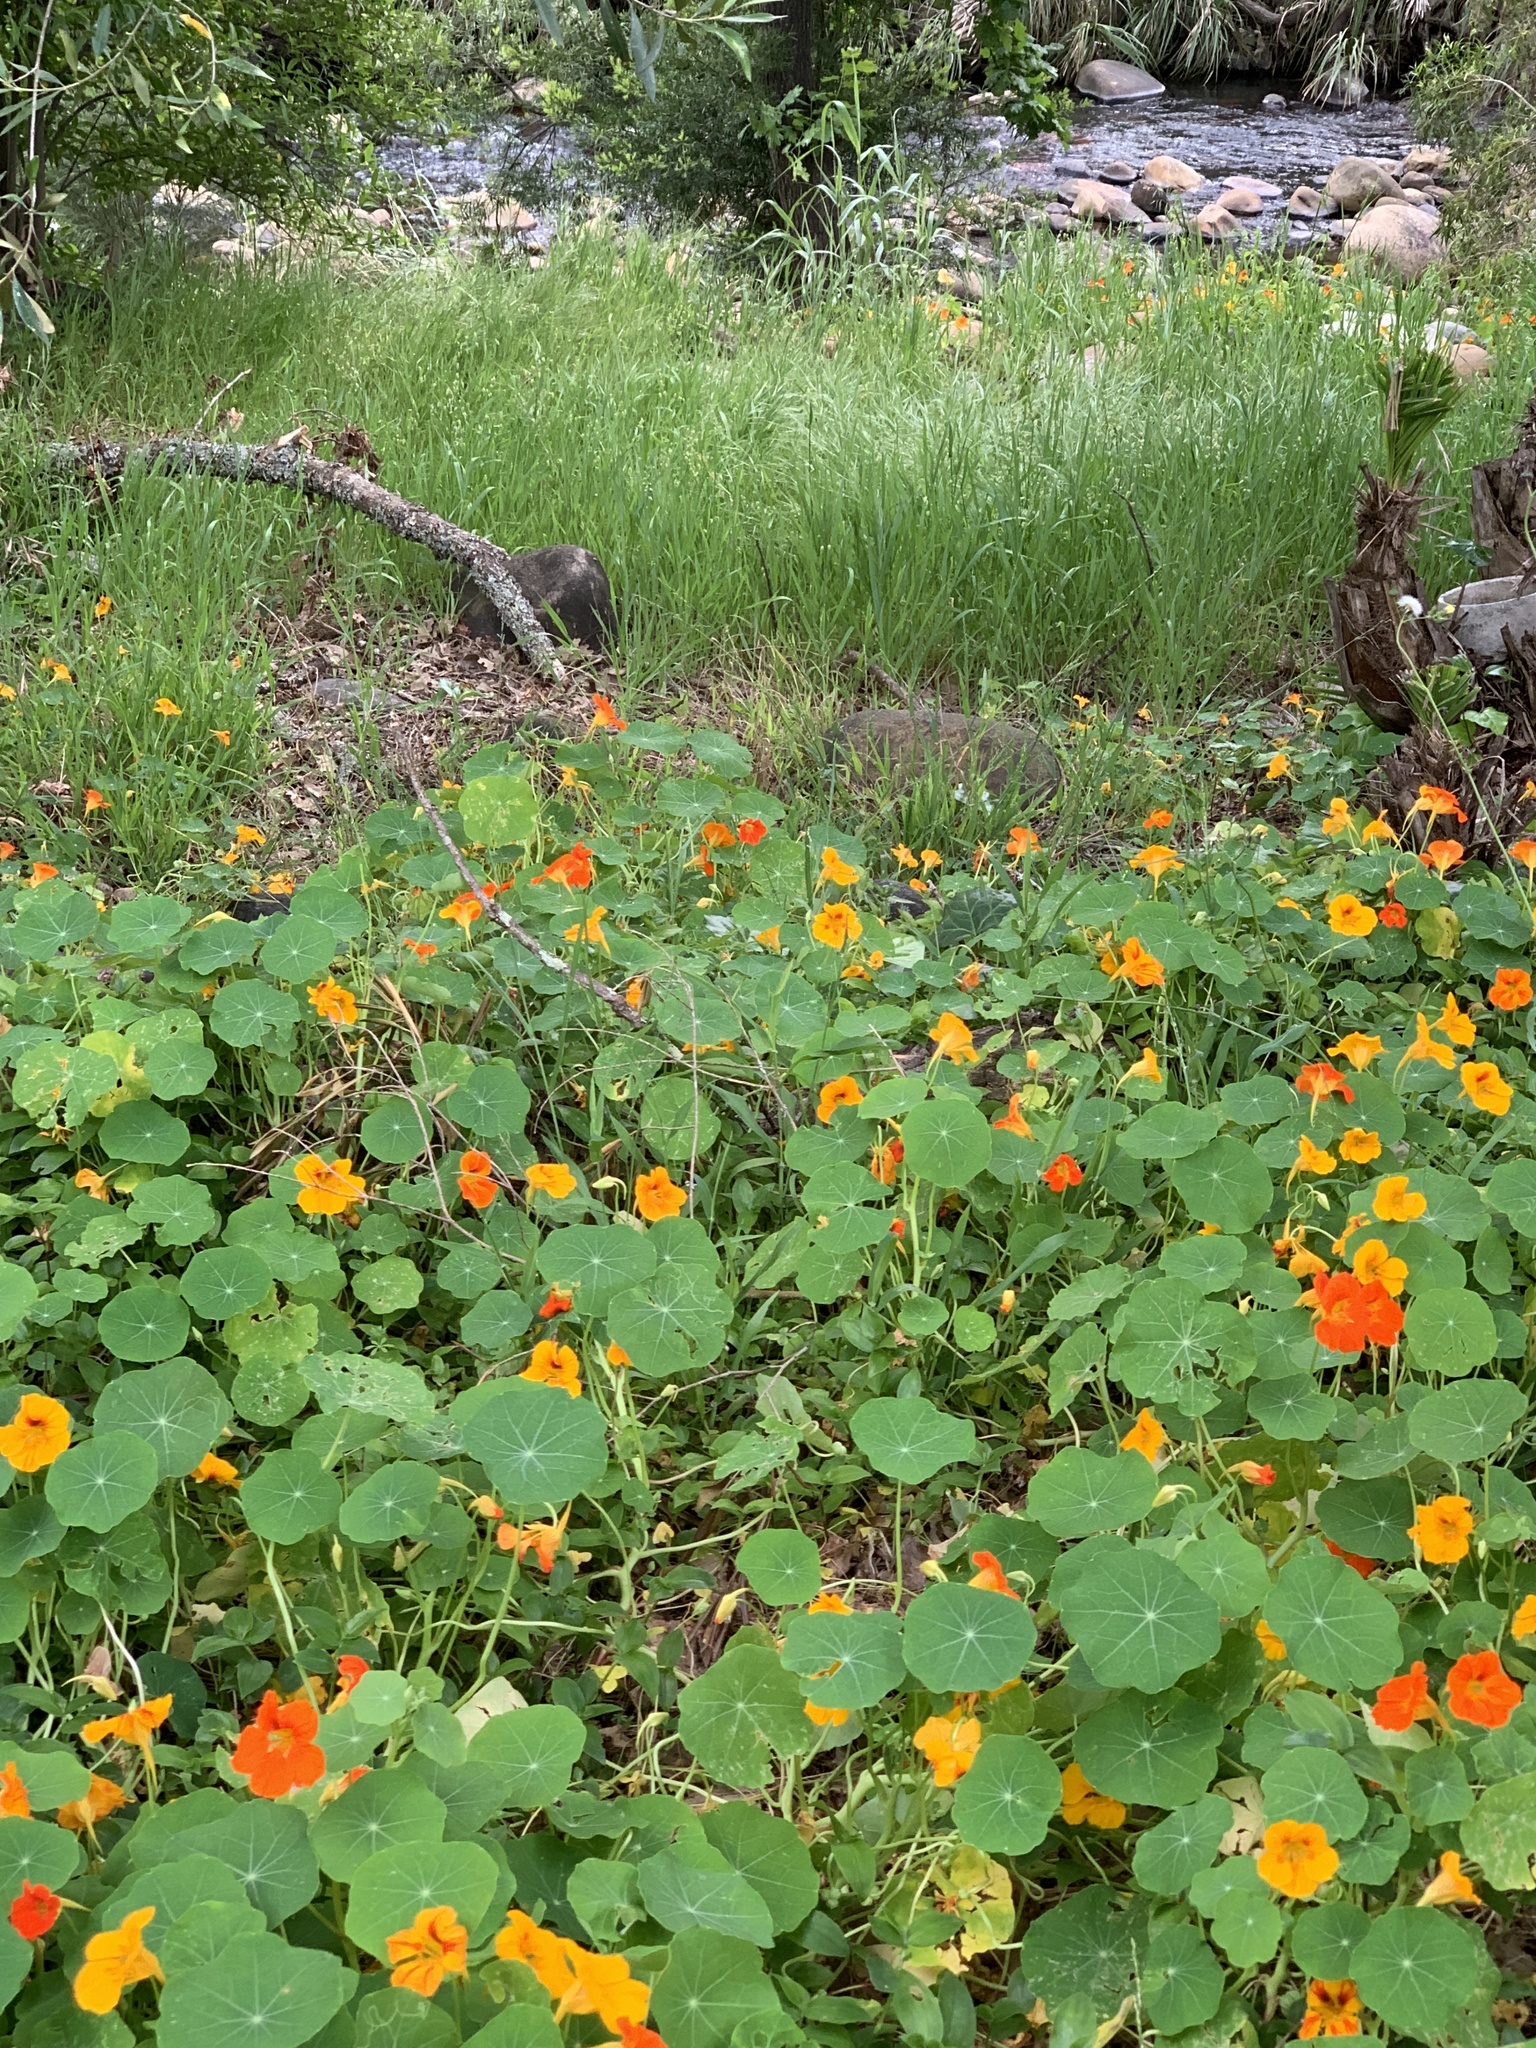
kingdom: Plantae
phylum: Tracheophyta
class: Magnoliopsida
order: Brassicales
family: Tropaeolaceae
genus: Tropaeolum
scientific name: Tropaeolum majus
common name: Nasturtium
